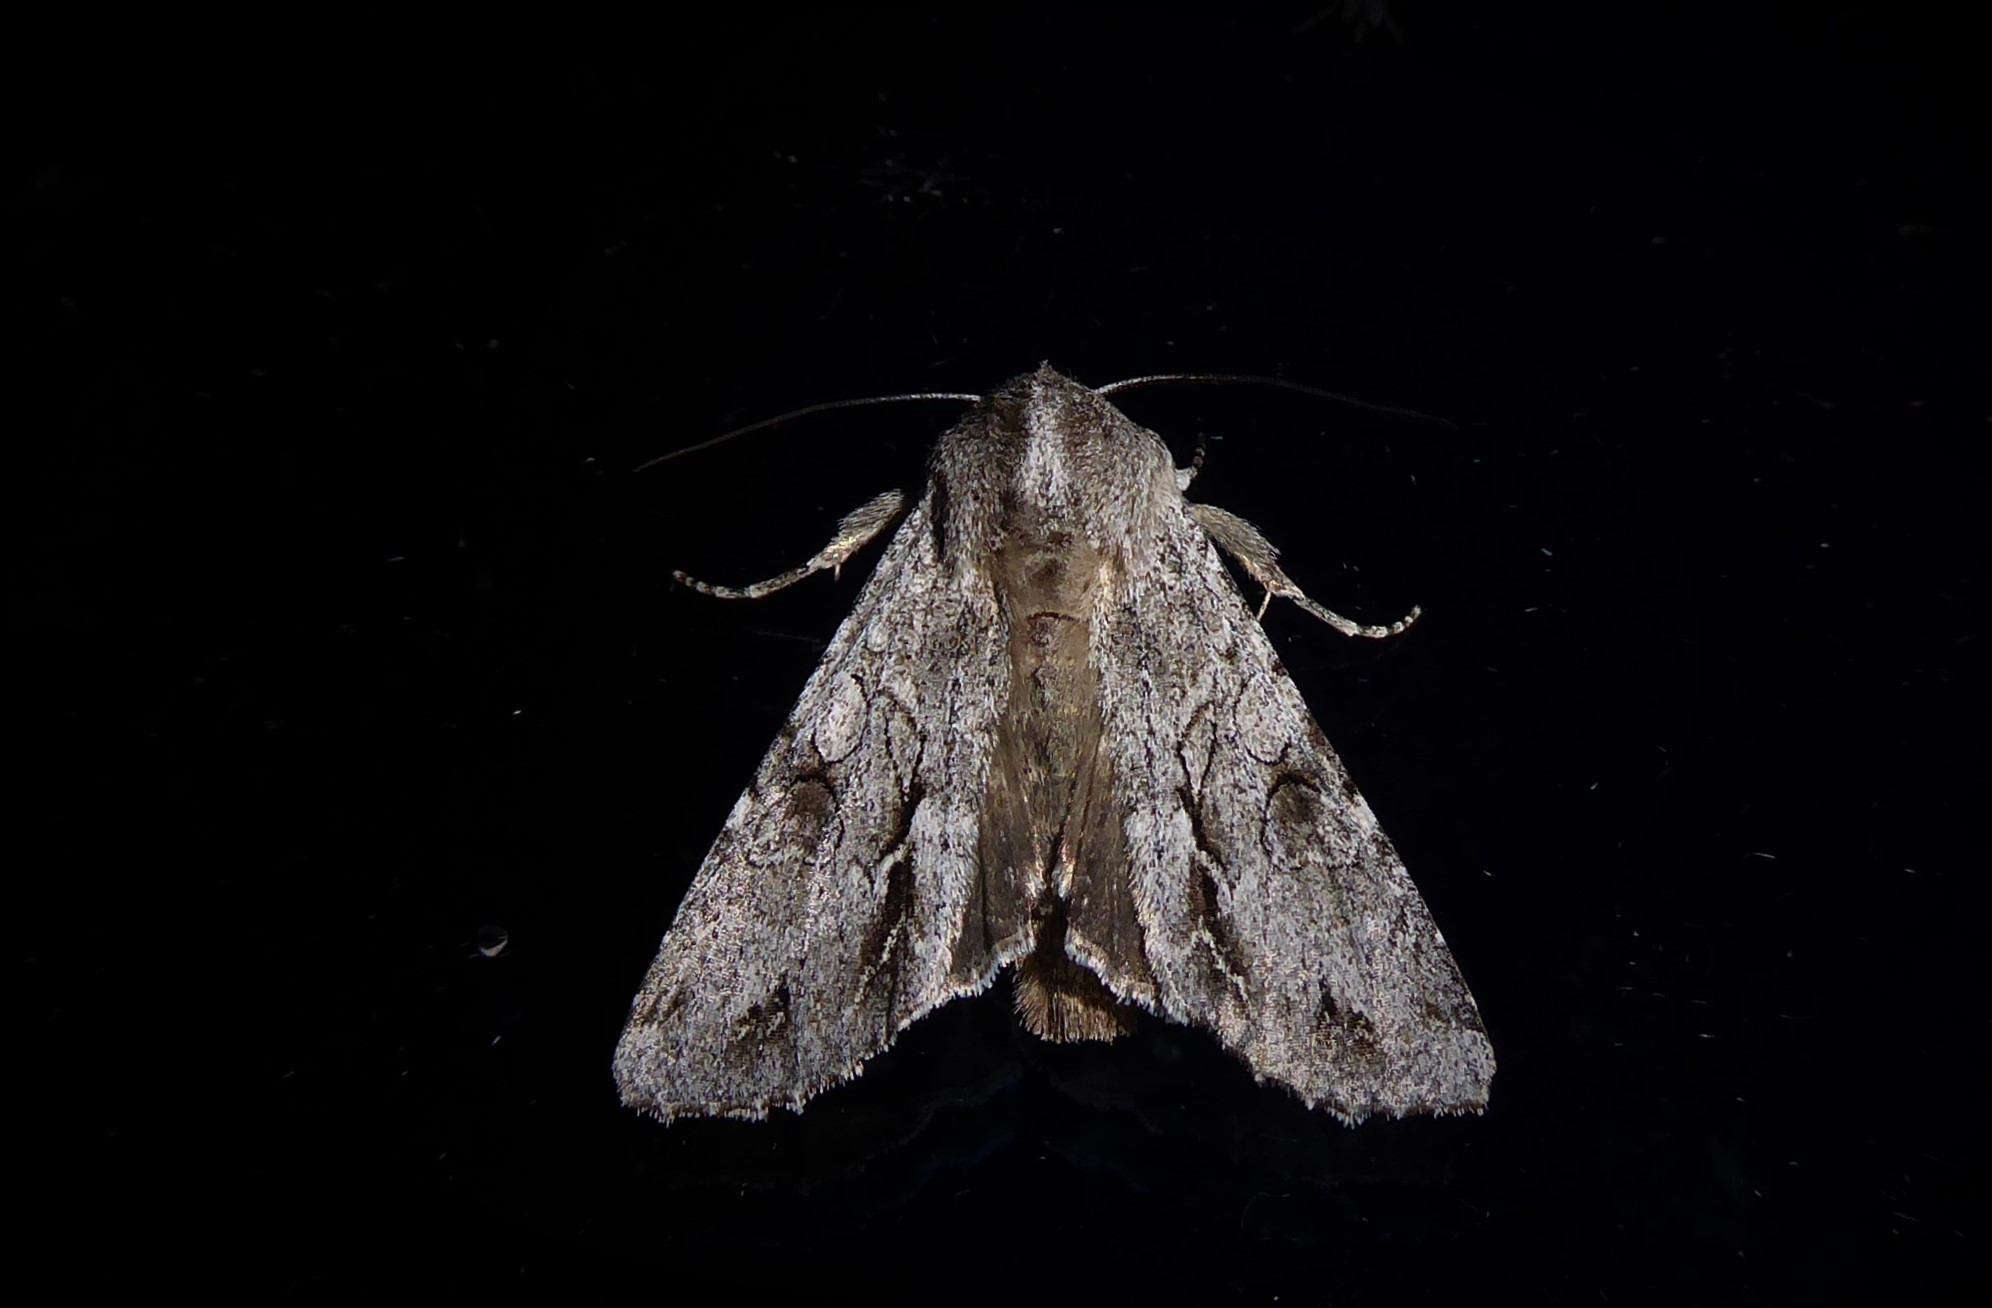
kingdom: Animalia
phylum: Arthropoda
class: Insecta
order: Lepidoptera
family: Noctuidae
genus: Ichneutica
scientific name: Ichneutica
